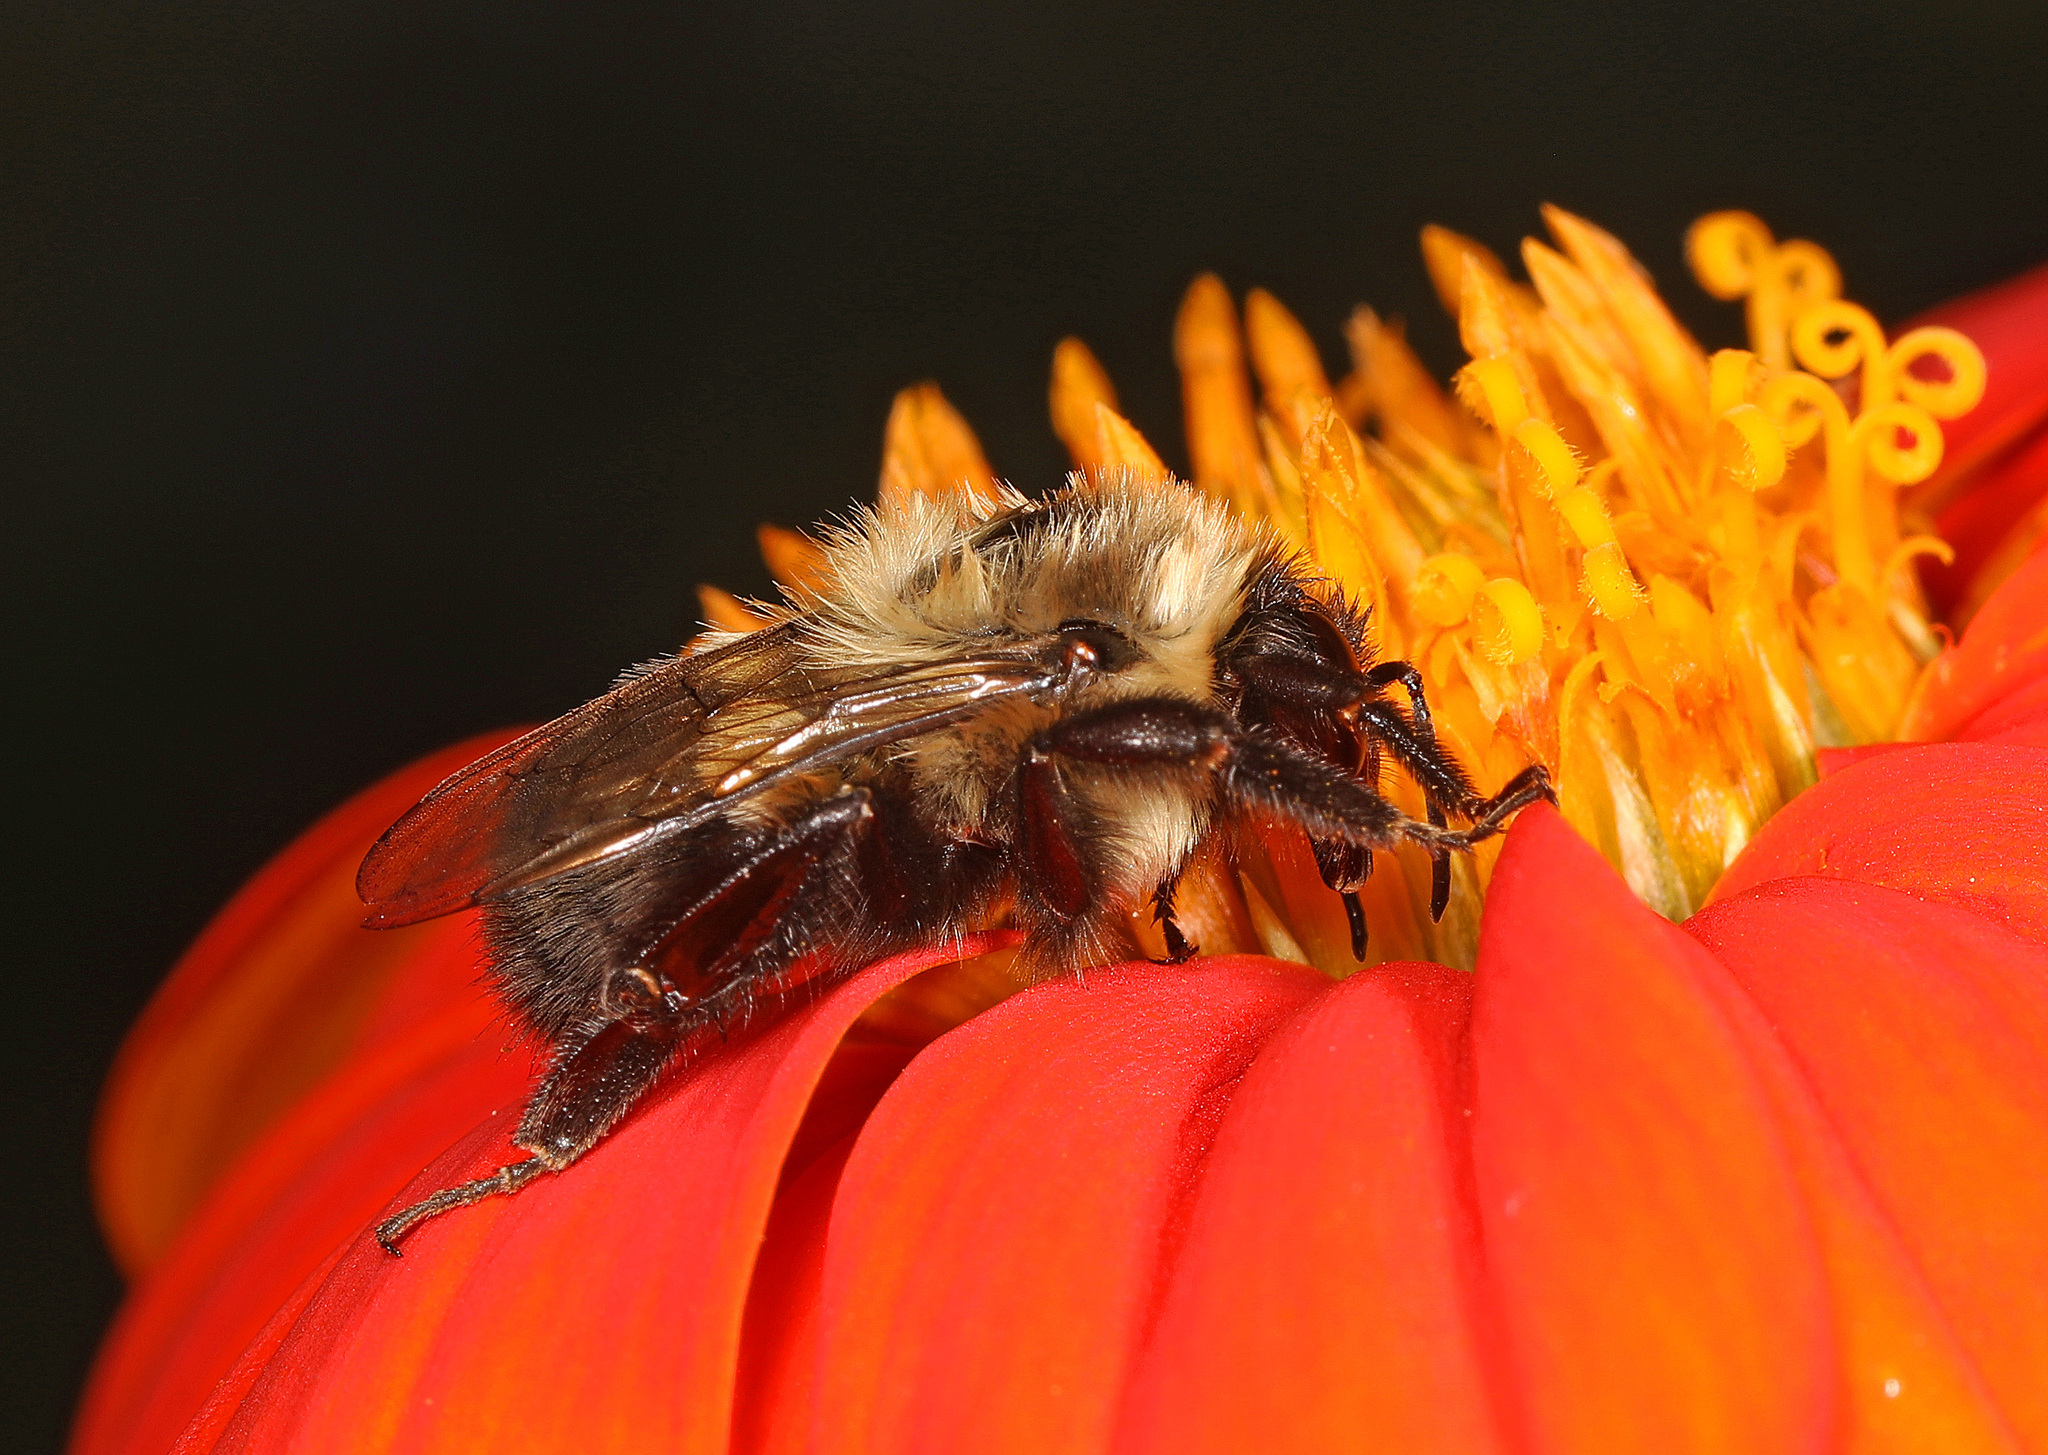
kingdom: Animalia
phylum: Arthropoda
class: Insecta
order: Hymenoptera
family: Apidae
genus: Bombus
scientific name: Bombus impatiens
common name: Common eastern bumble bee
